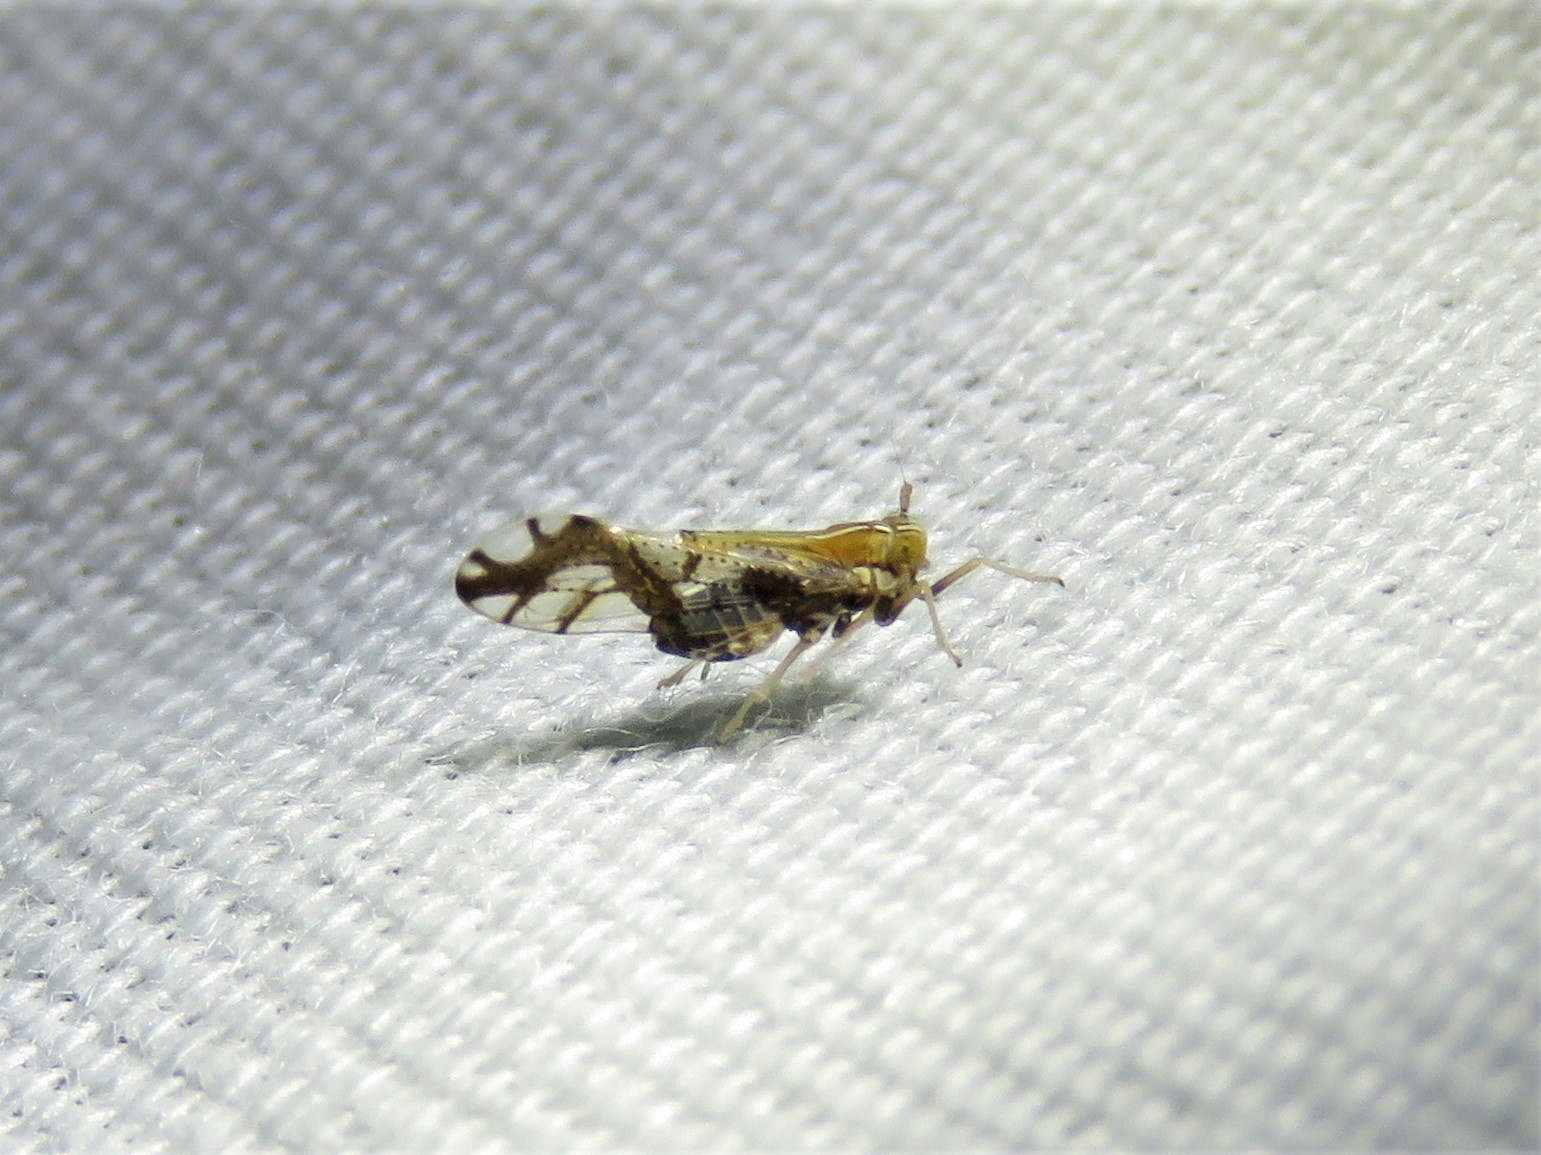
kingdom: Animalia
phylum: Arthropoda
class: Insecta
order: Hemiptera
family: Delphacidae
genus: Liburniella
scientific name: Liburniella ornata
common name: Ornate planthopper
